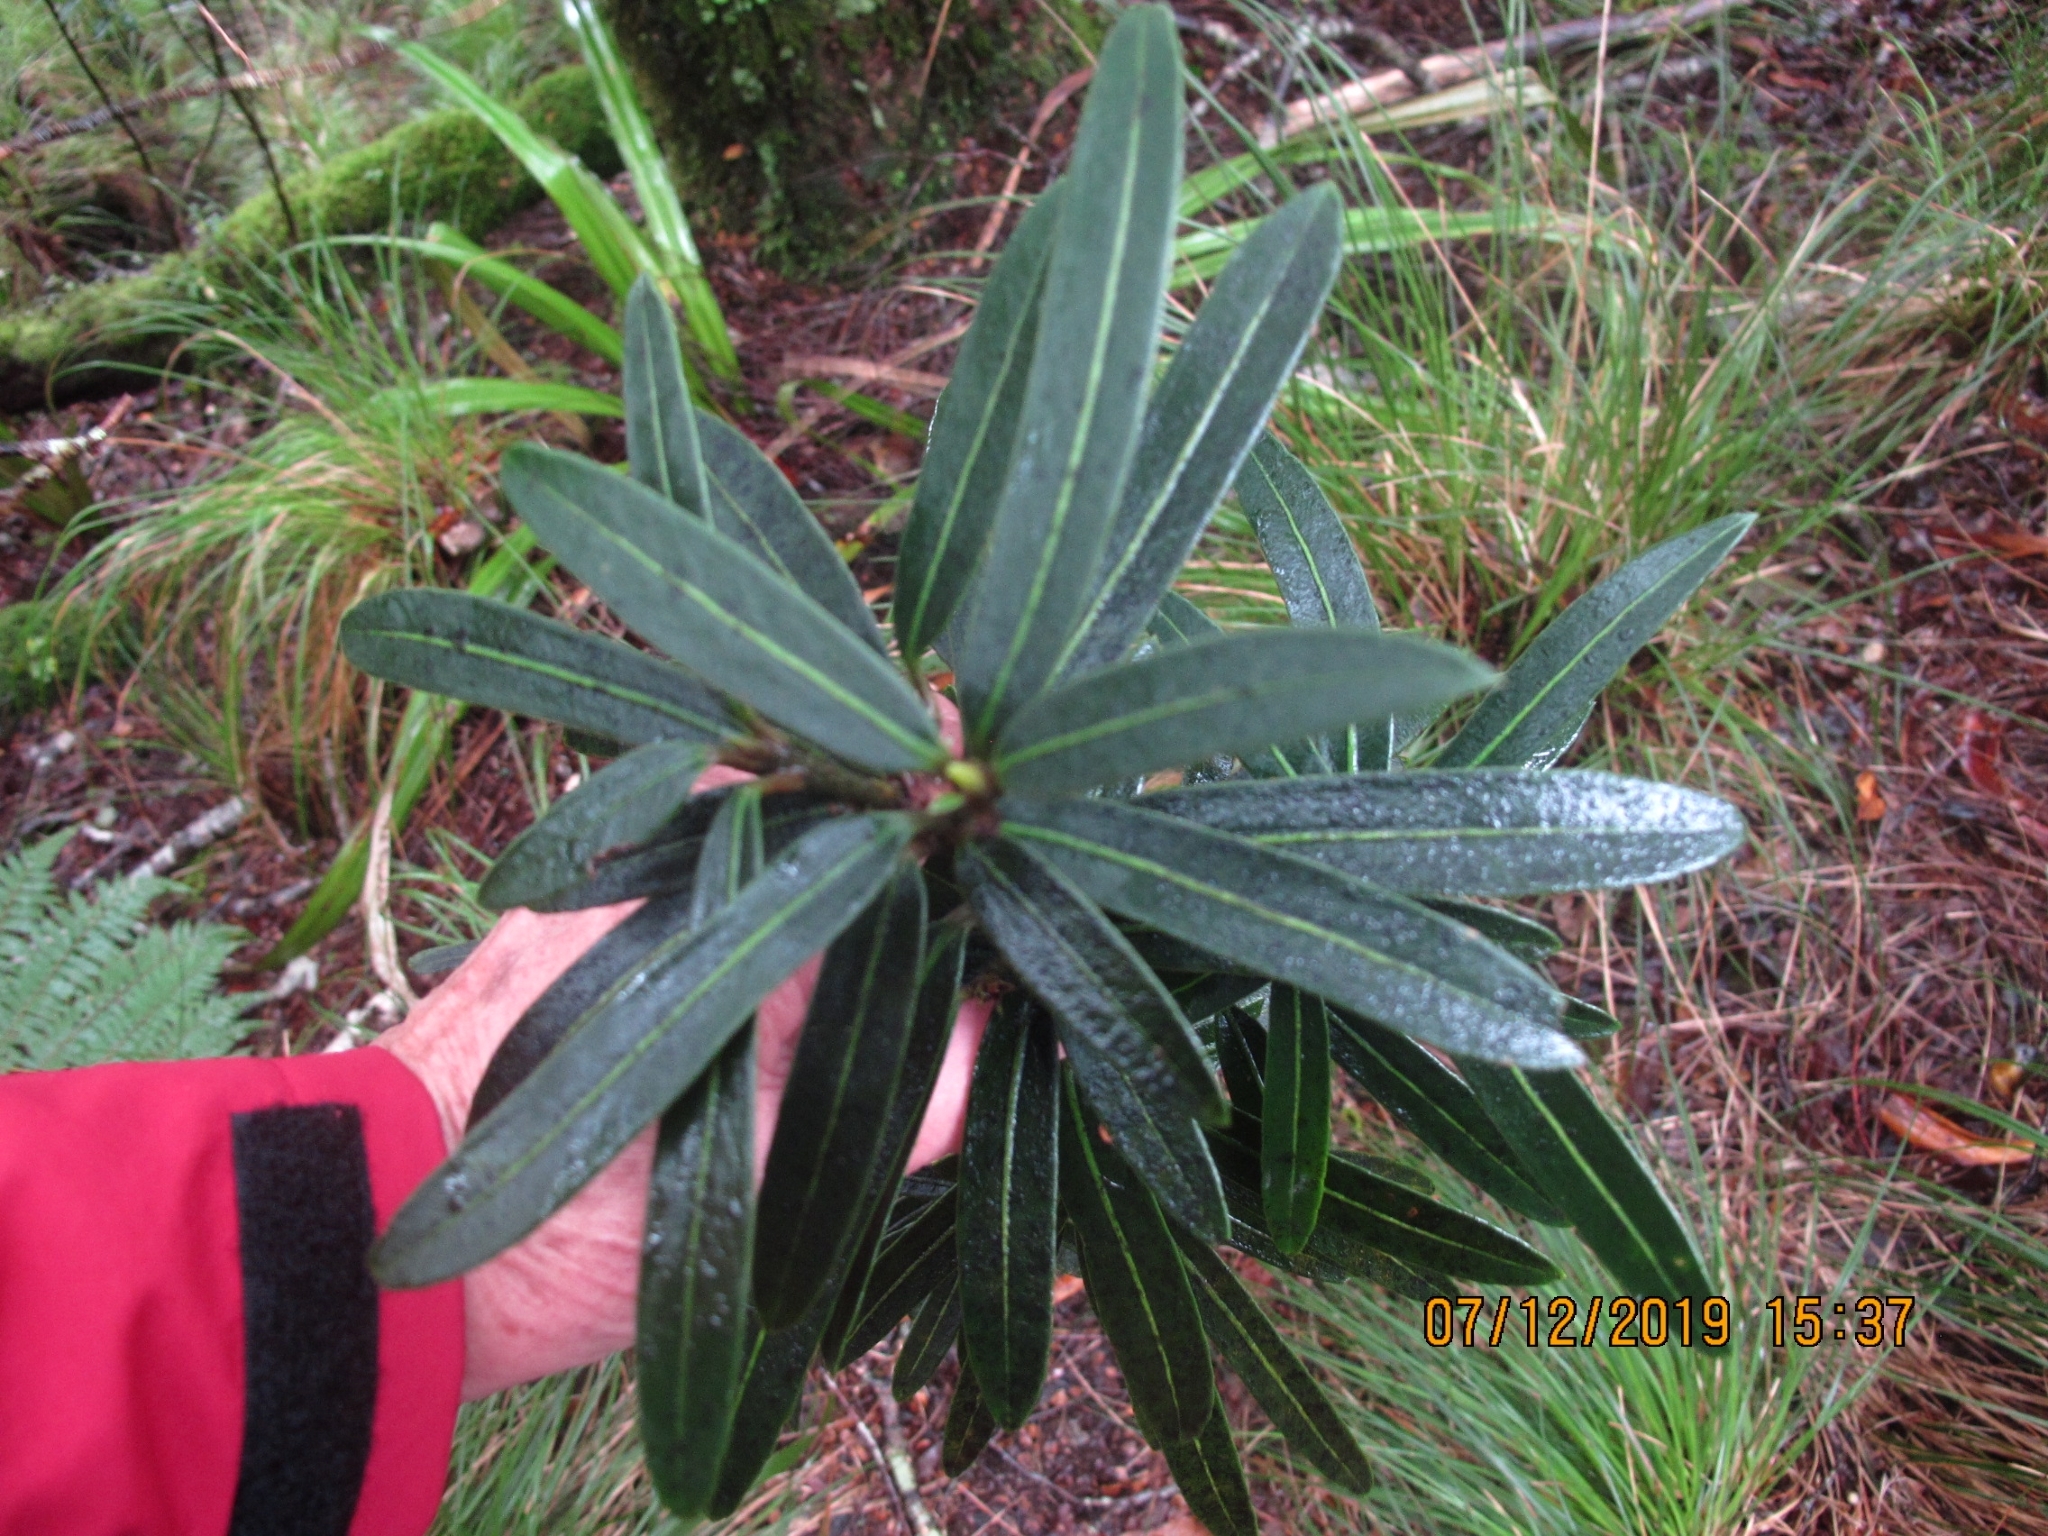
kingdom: Plantae
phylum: Tracheophyta
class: Magnoliopsida
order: Apiales
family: Araliaceae
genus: Pseudopanax
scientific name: Pseudopanax linearis
